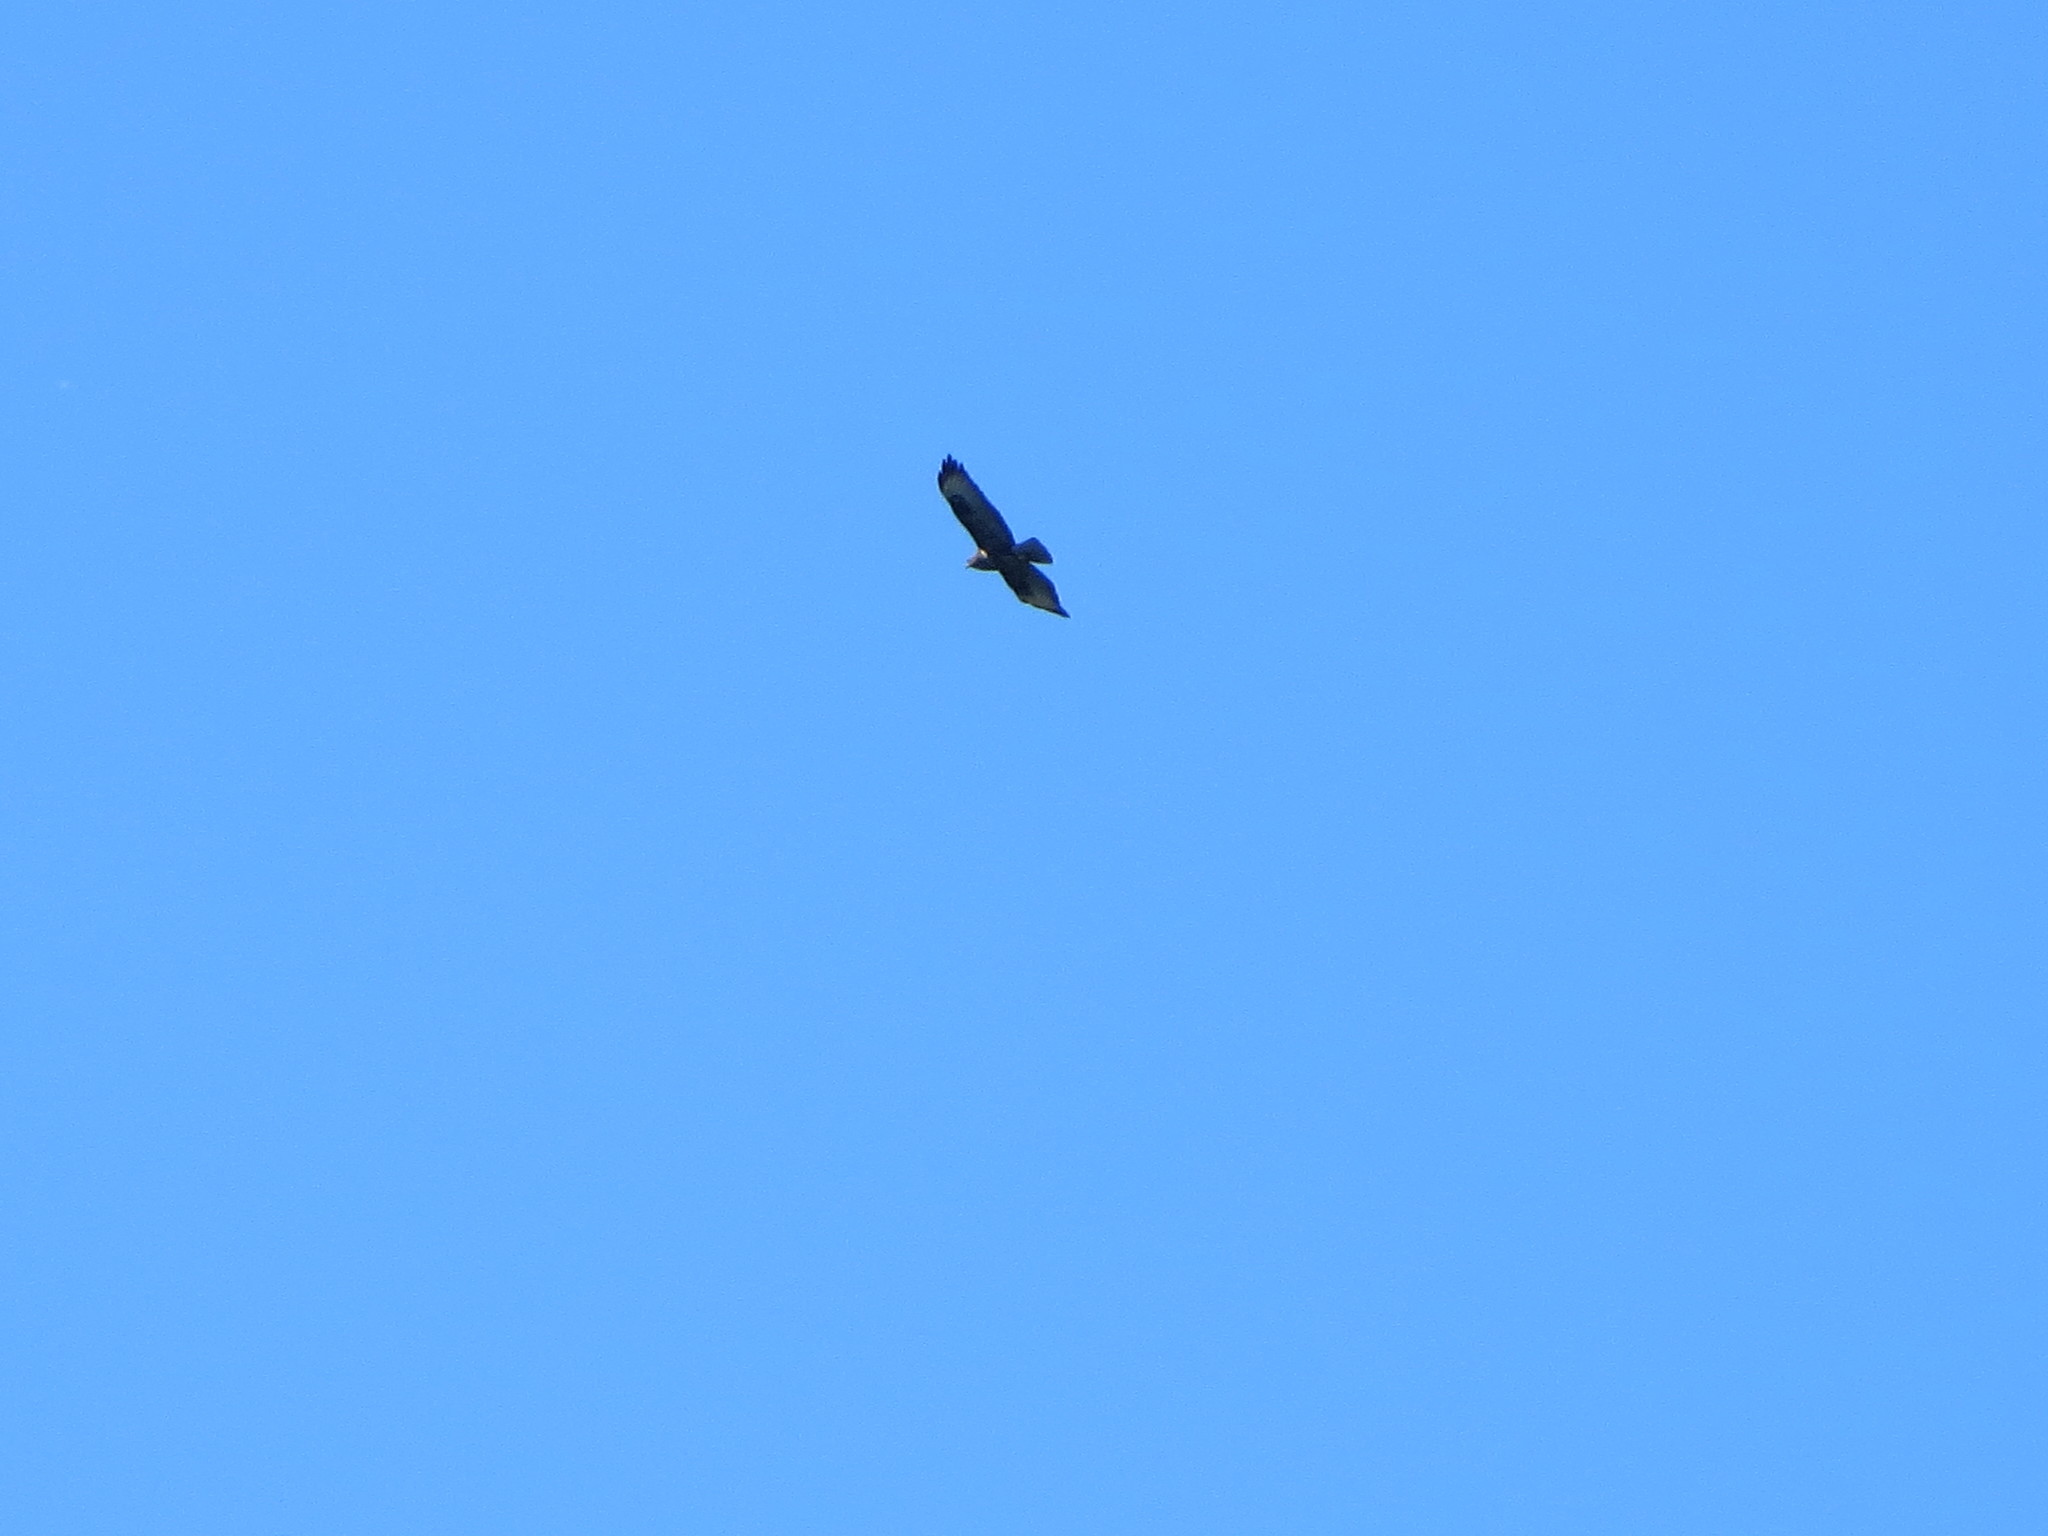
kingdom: Animalia
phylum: Chordata
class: Aves
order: Accipitriformes
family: Accipitridae
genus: Buteo
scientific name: Buteo buteo
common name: Common buzzard
